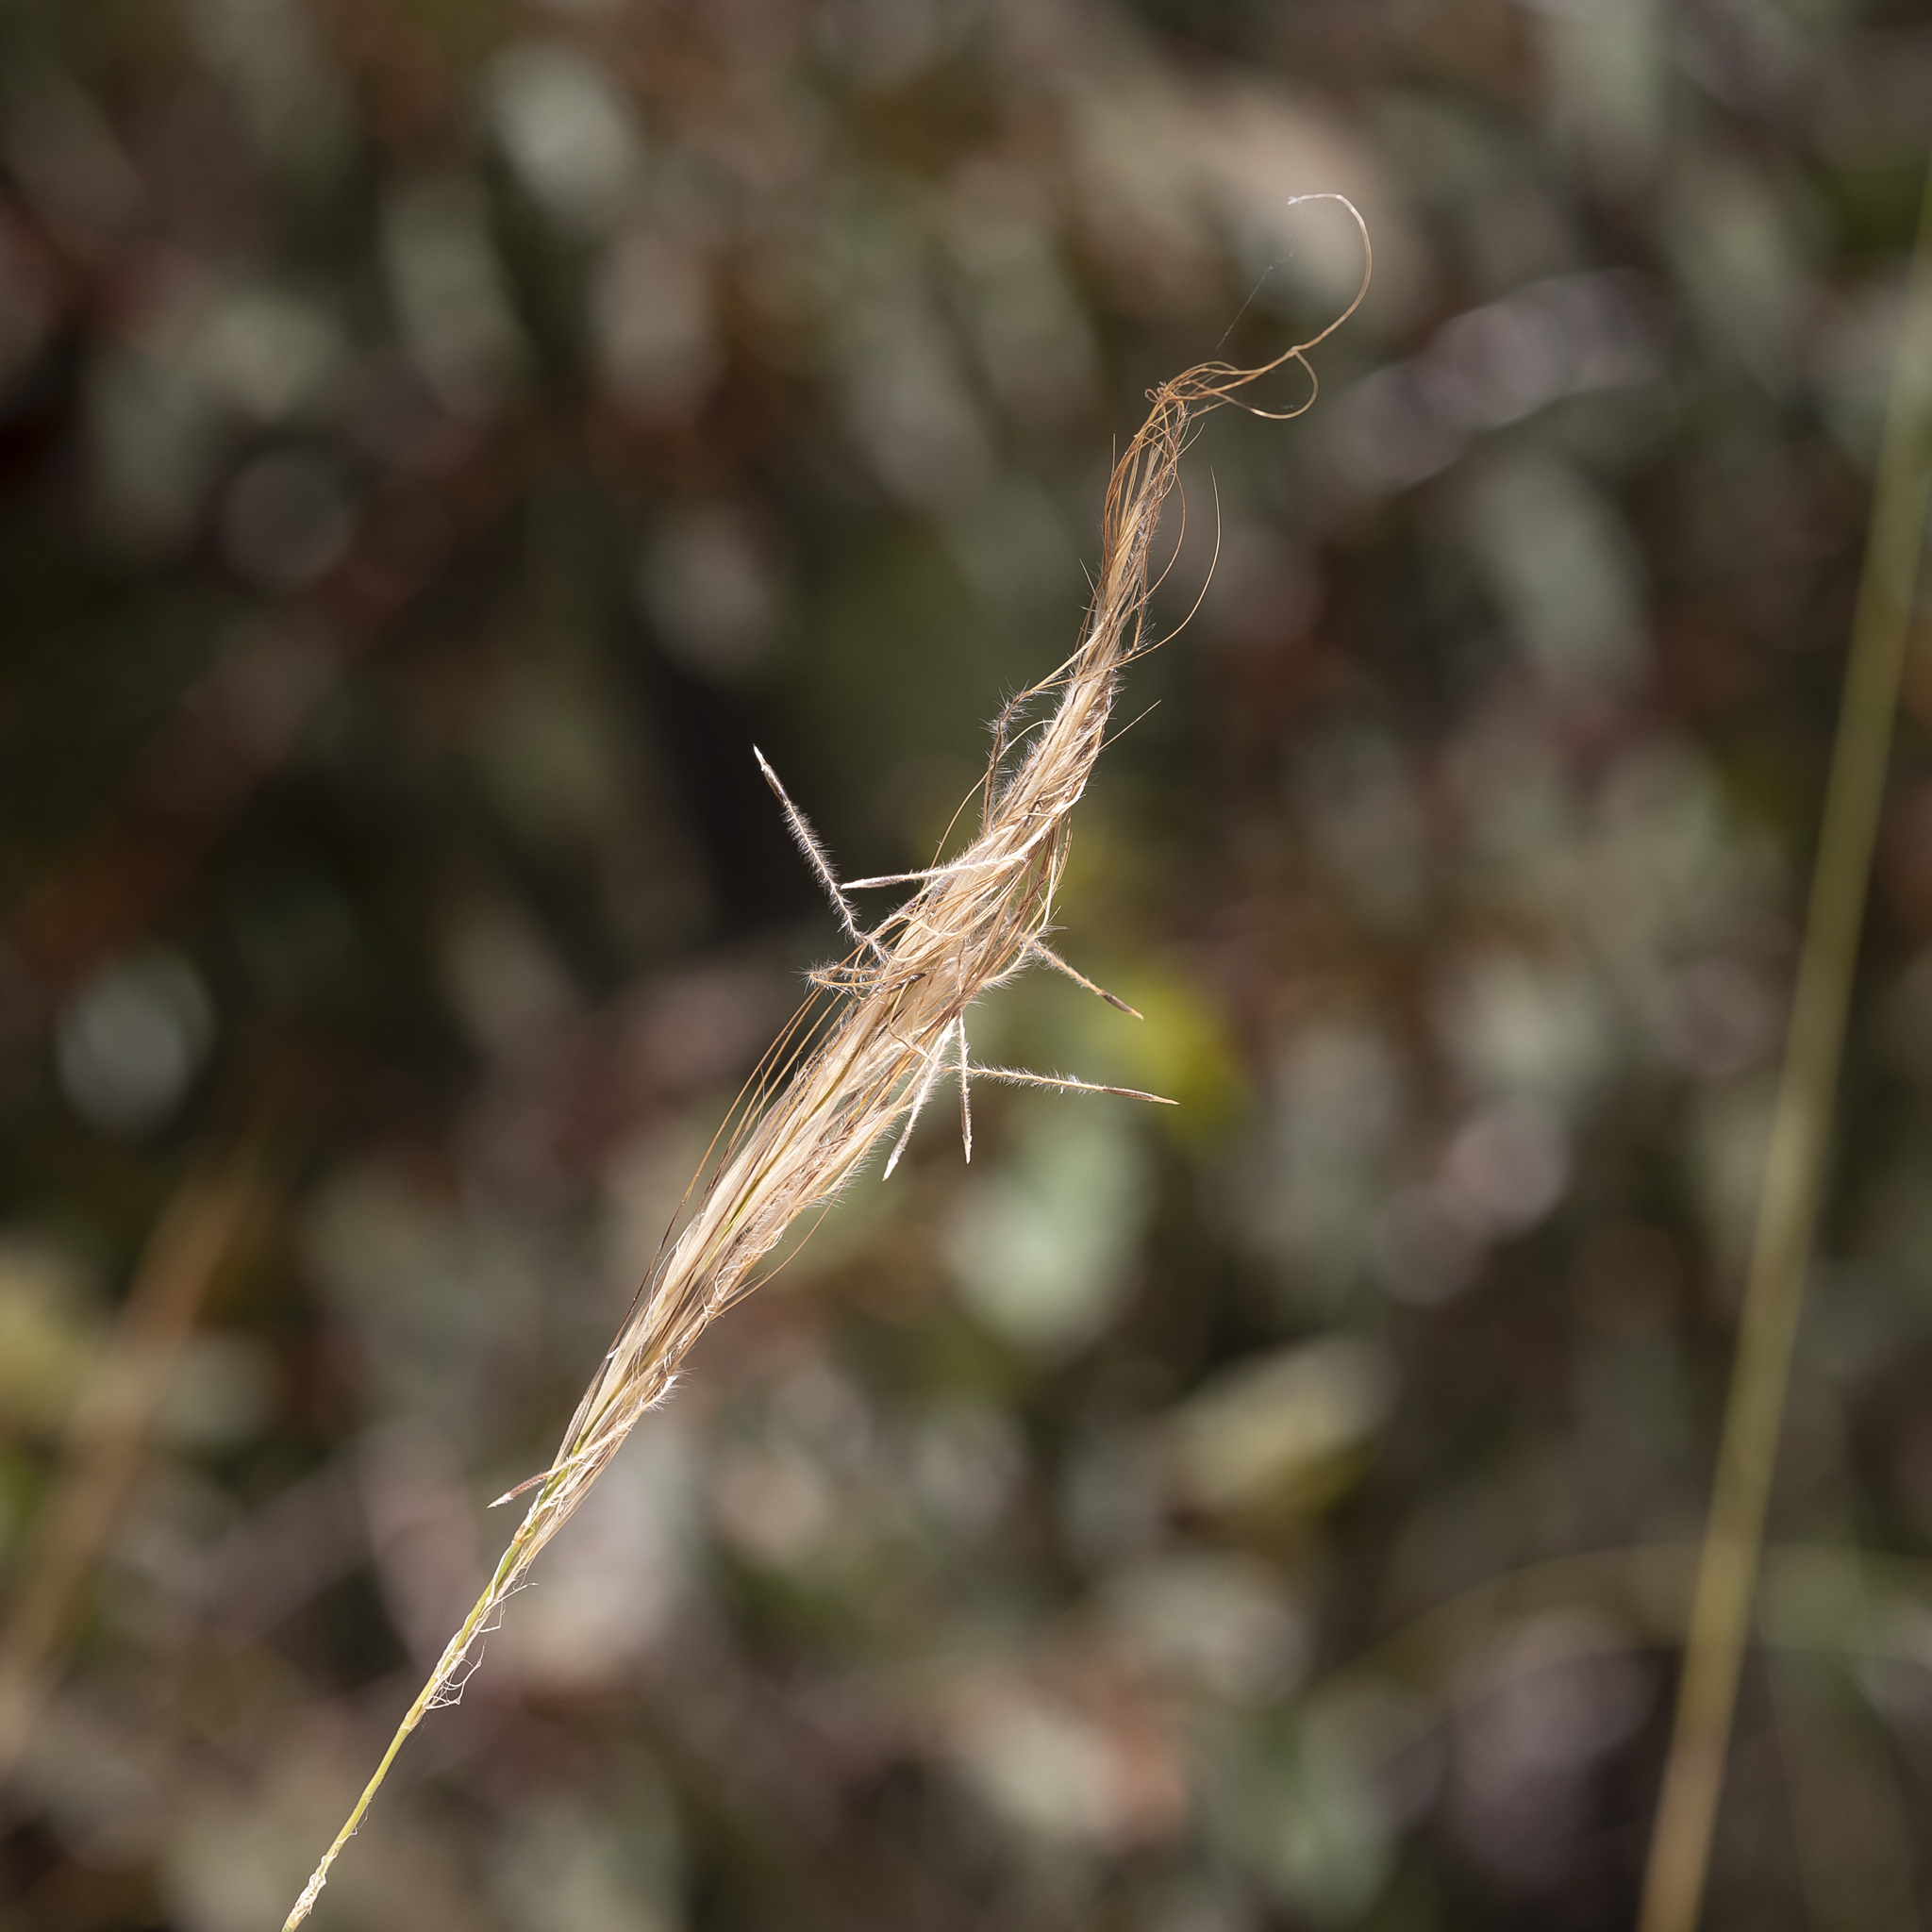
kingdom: Plantae
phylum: Tracheophyta
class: Liliopsida
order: Poales
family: Poaceae
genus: Austrostipa
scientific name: Austrostipa mollis
